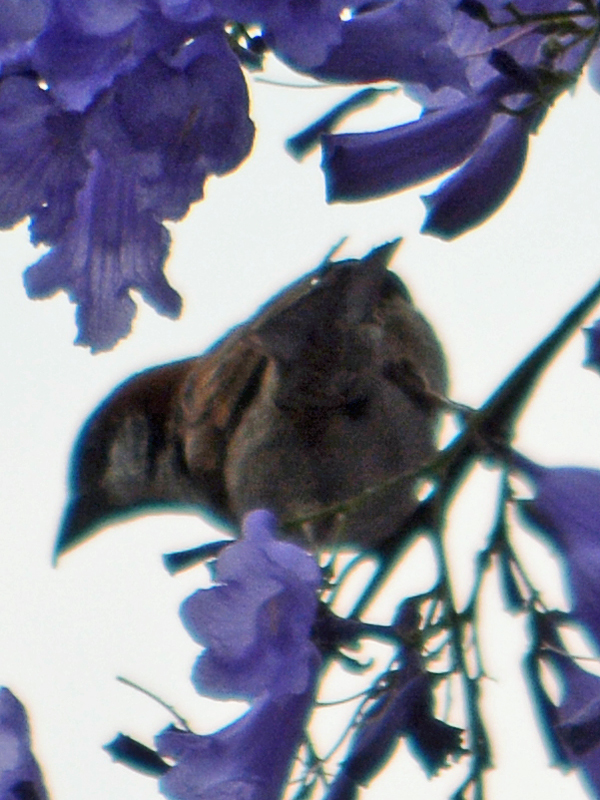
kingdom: Animalia
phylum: Chordata
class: Aves
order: Passeriformes
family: Passeridae
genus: Passer
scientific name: Passer domesticus
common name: House sparrow
